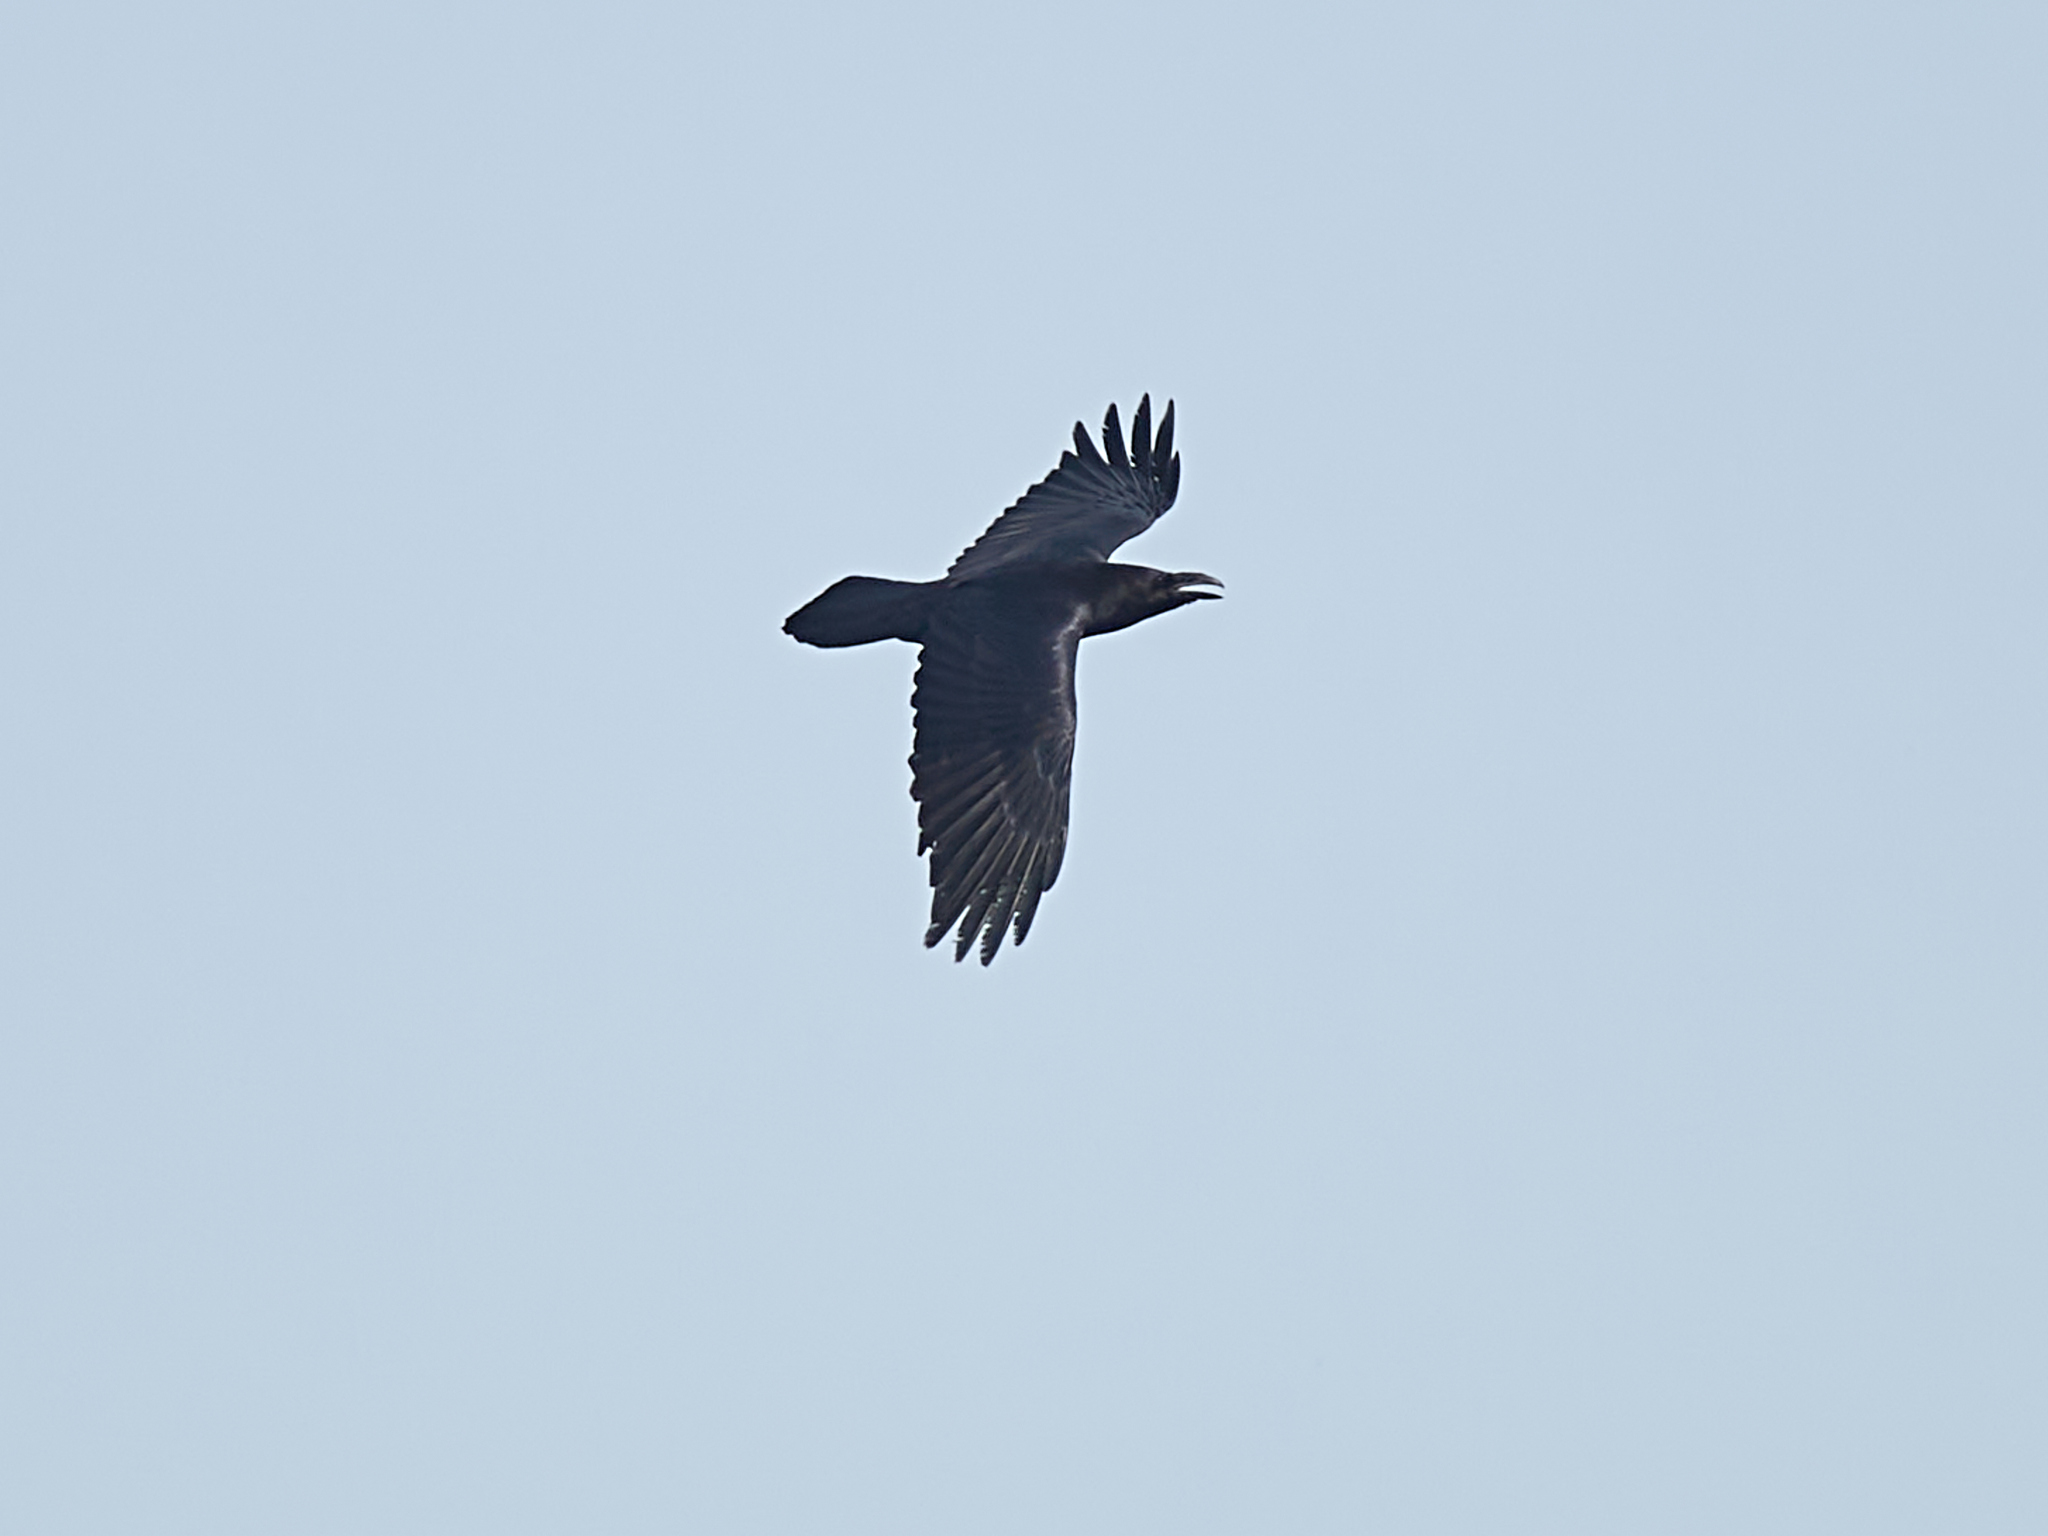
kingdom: Animalia
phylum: Chordata
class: Aves
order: Passeriformes
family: Corvidae
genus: Corvus
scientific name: Corvus corax
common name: Common raven
